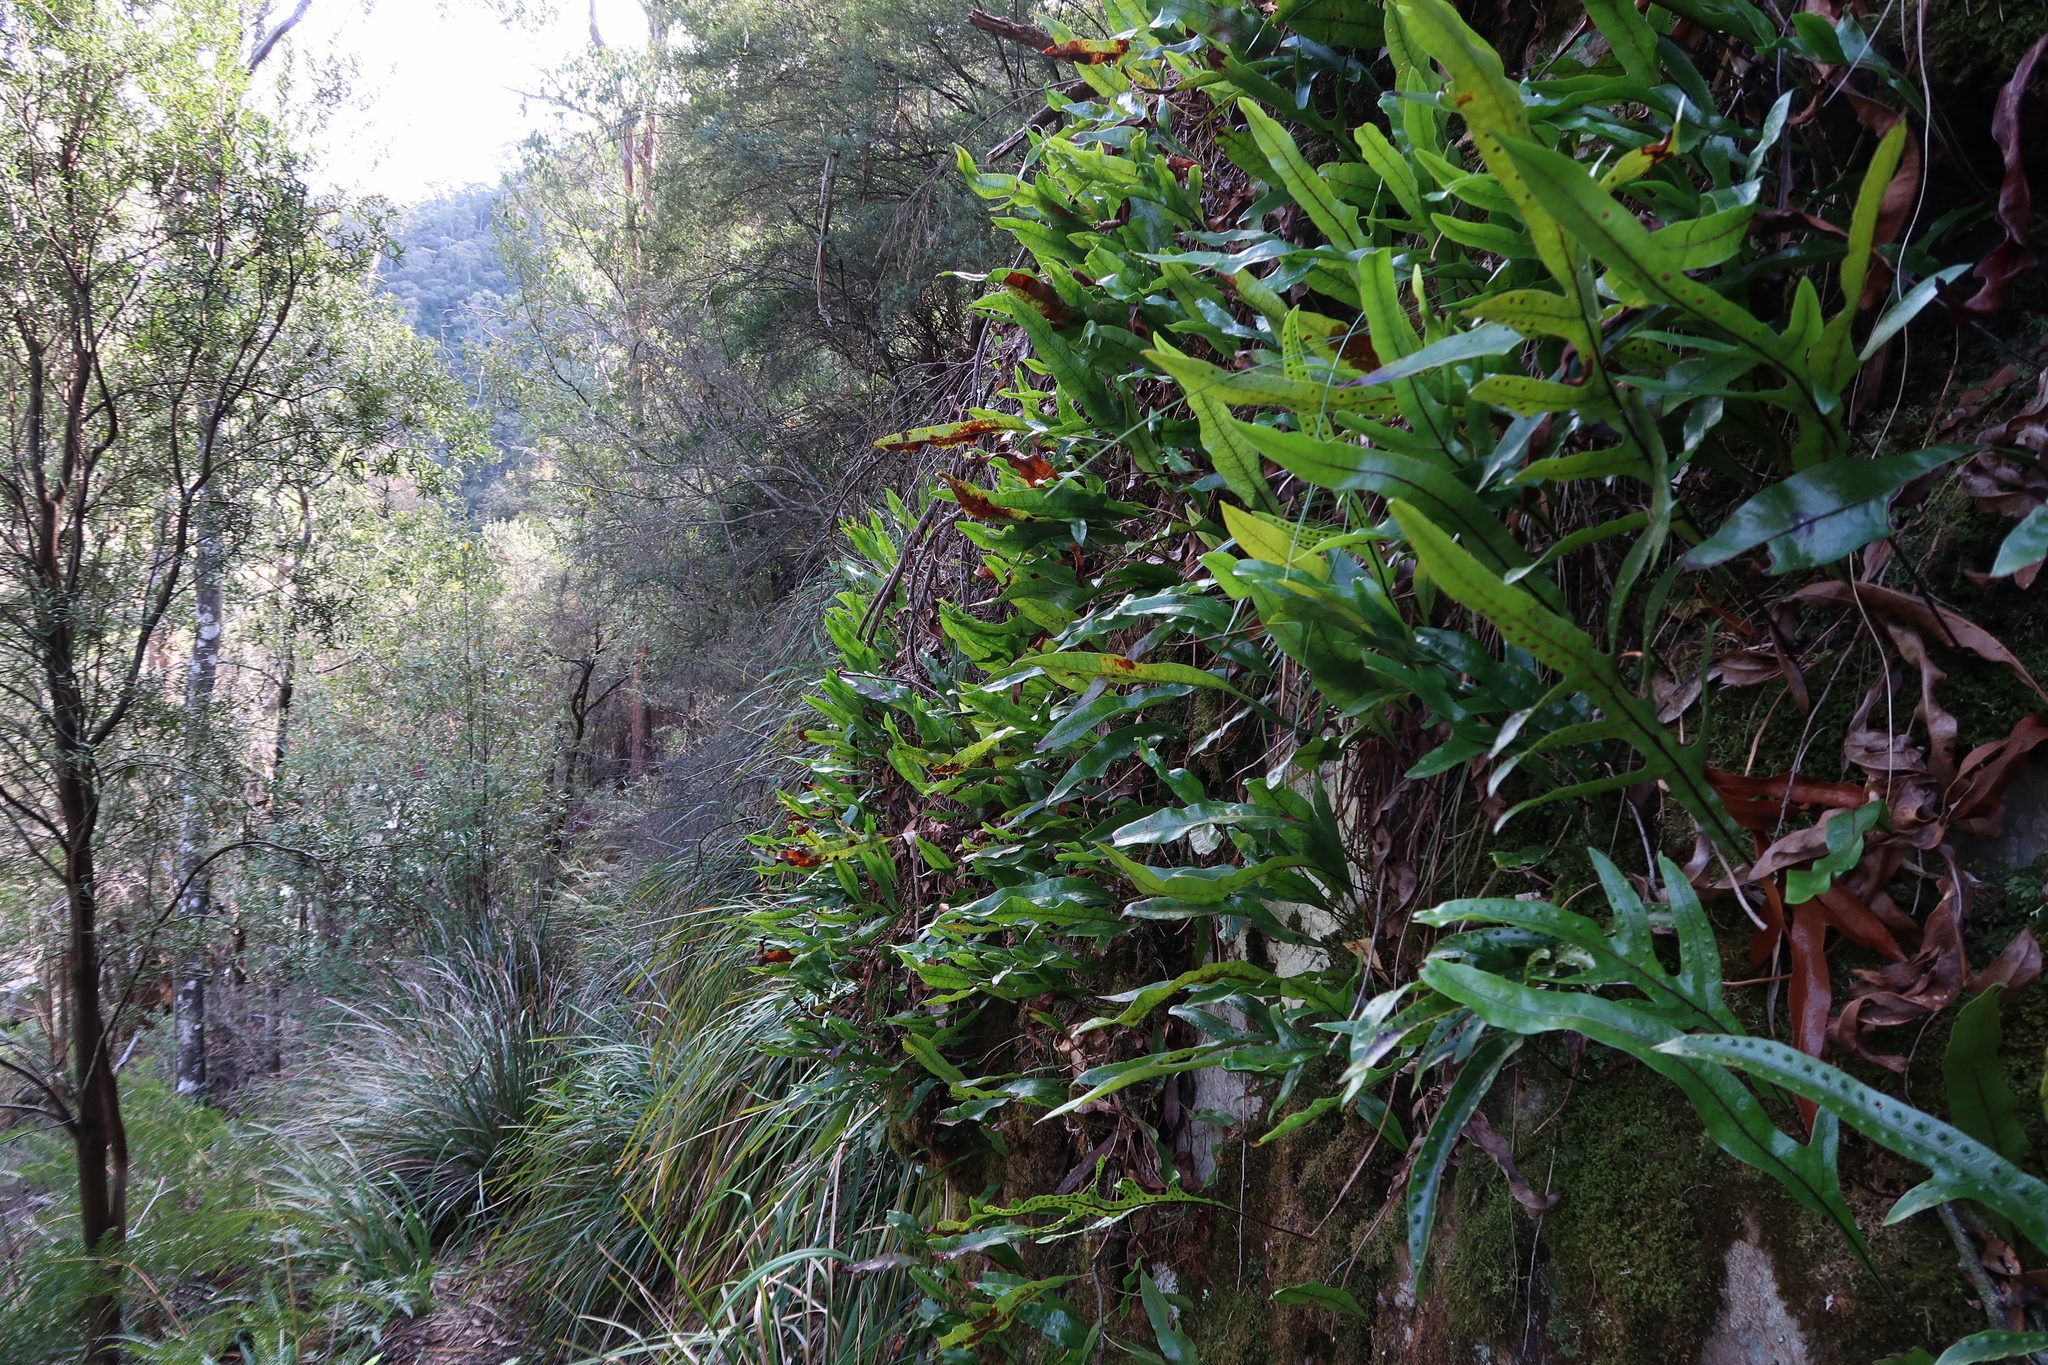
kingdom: Plantae
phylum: Tracheophyta
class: Polypodiopsida
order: Polypodiales
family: Polypodiaceae
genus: Lecanopteris
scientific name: Lecanopteris pustulata
